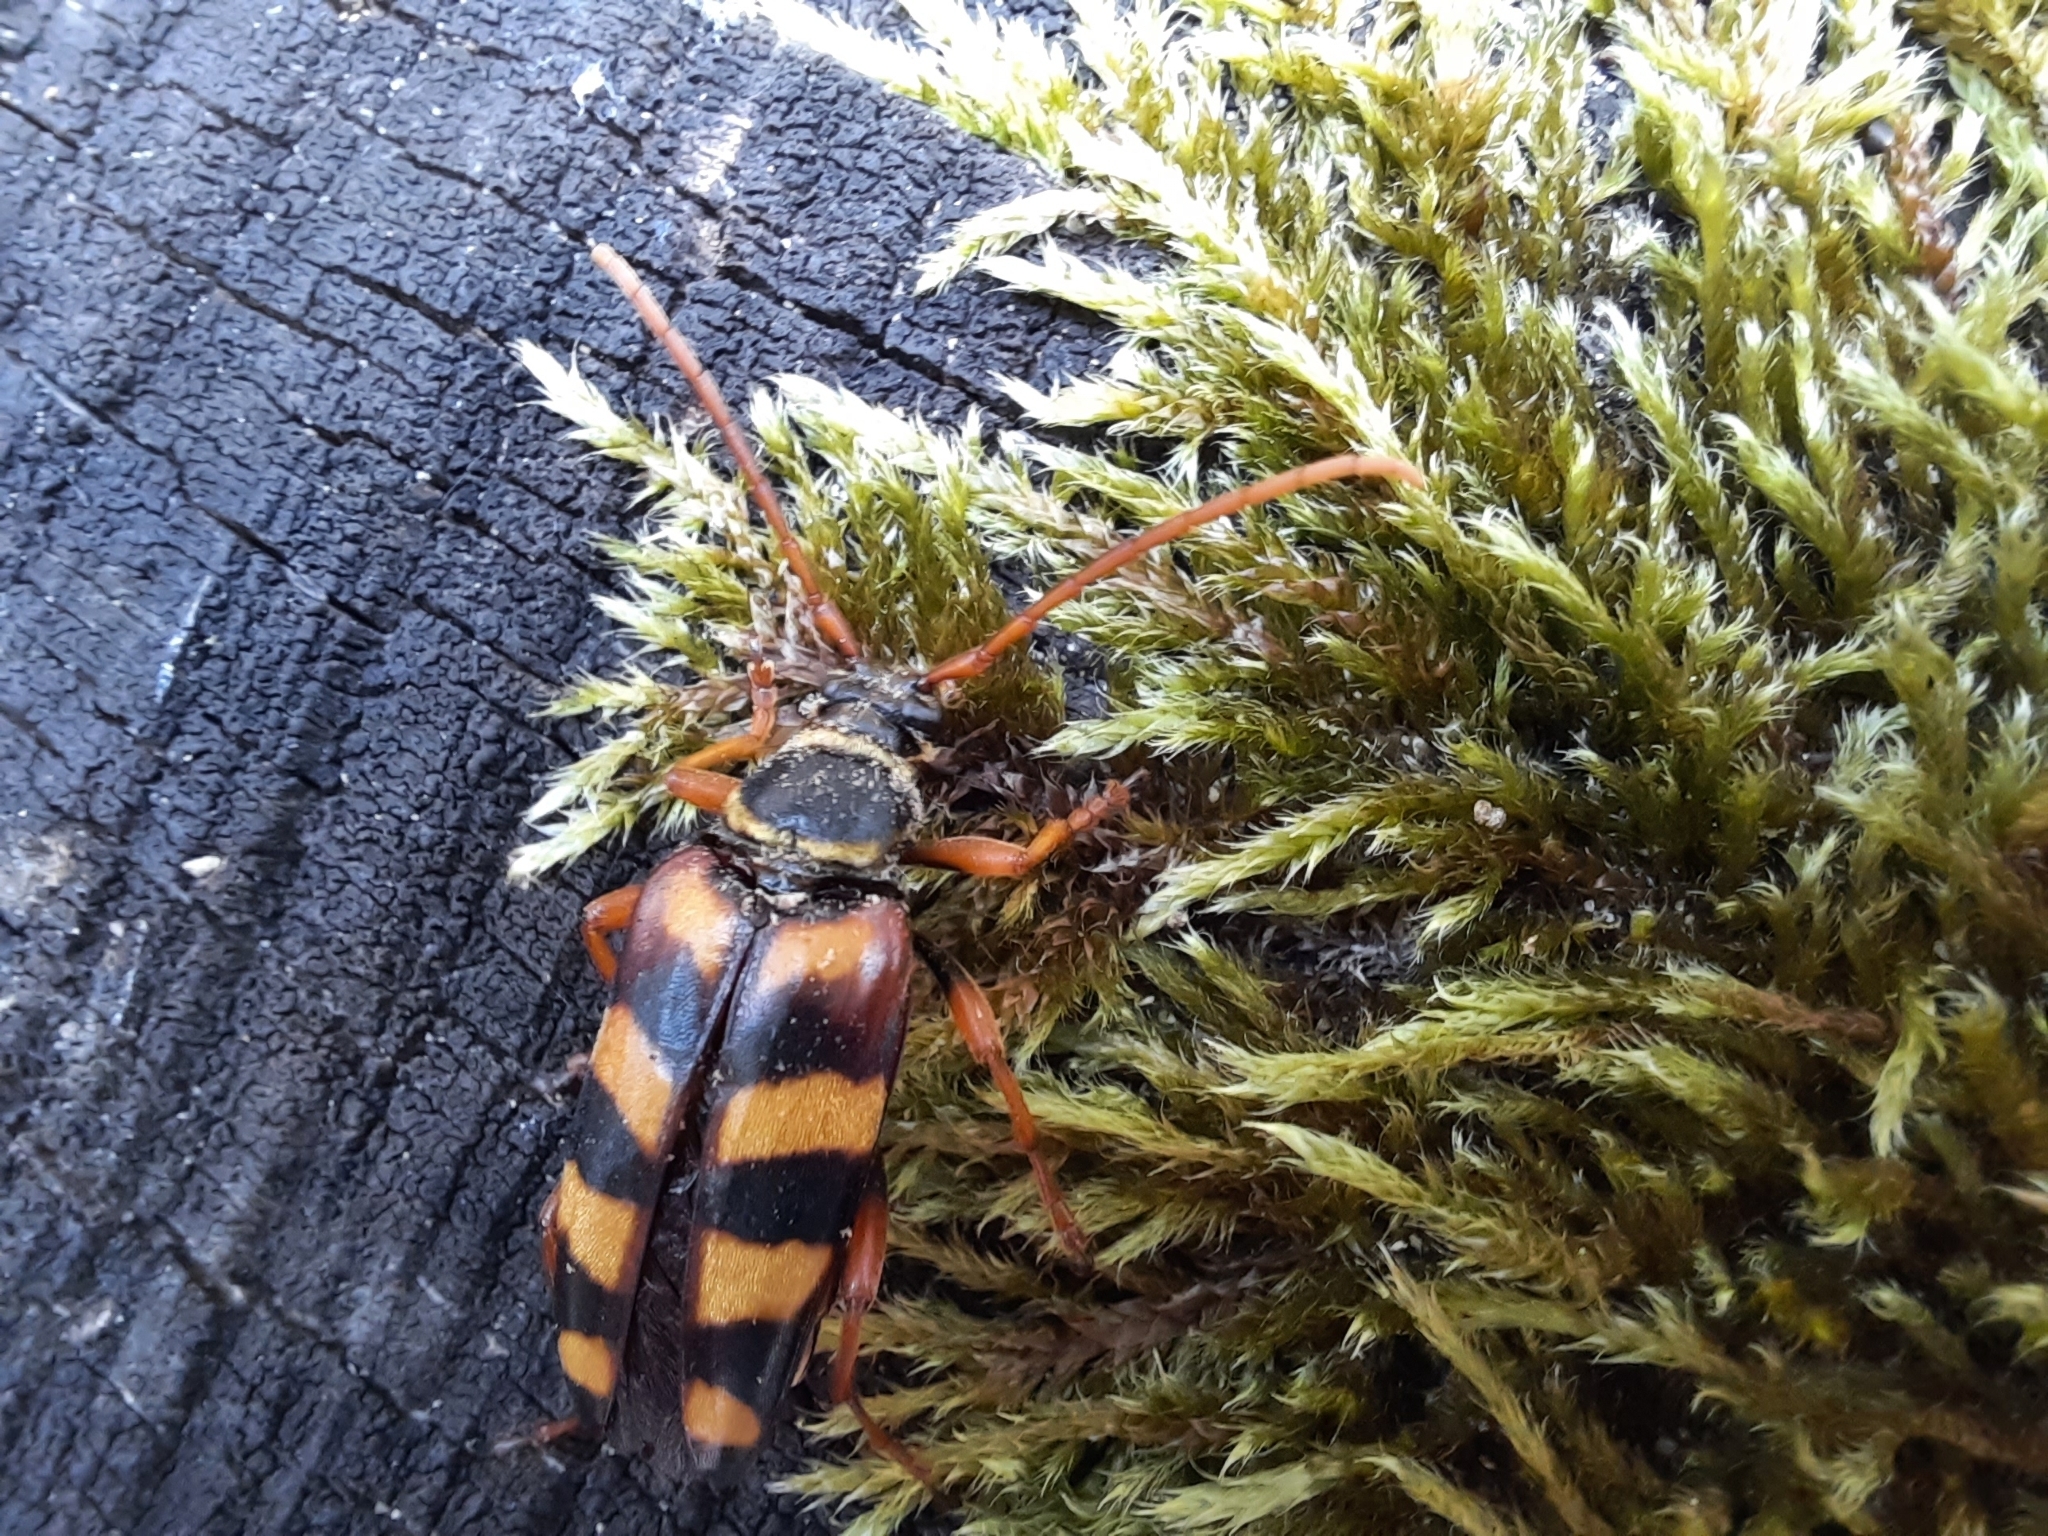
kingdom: Animalia
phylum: Arthropoda
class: Insecta
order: Coleoptera
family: Cerambycidae
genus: Leptura
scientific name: Leptura aurulenta
